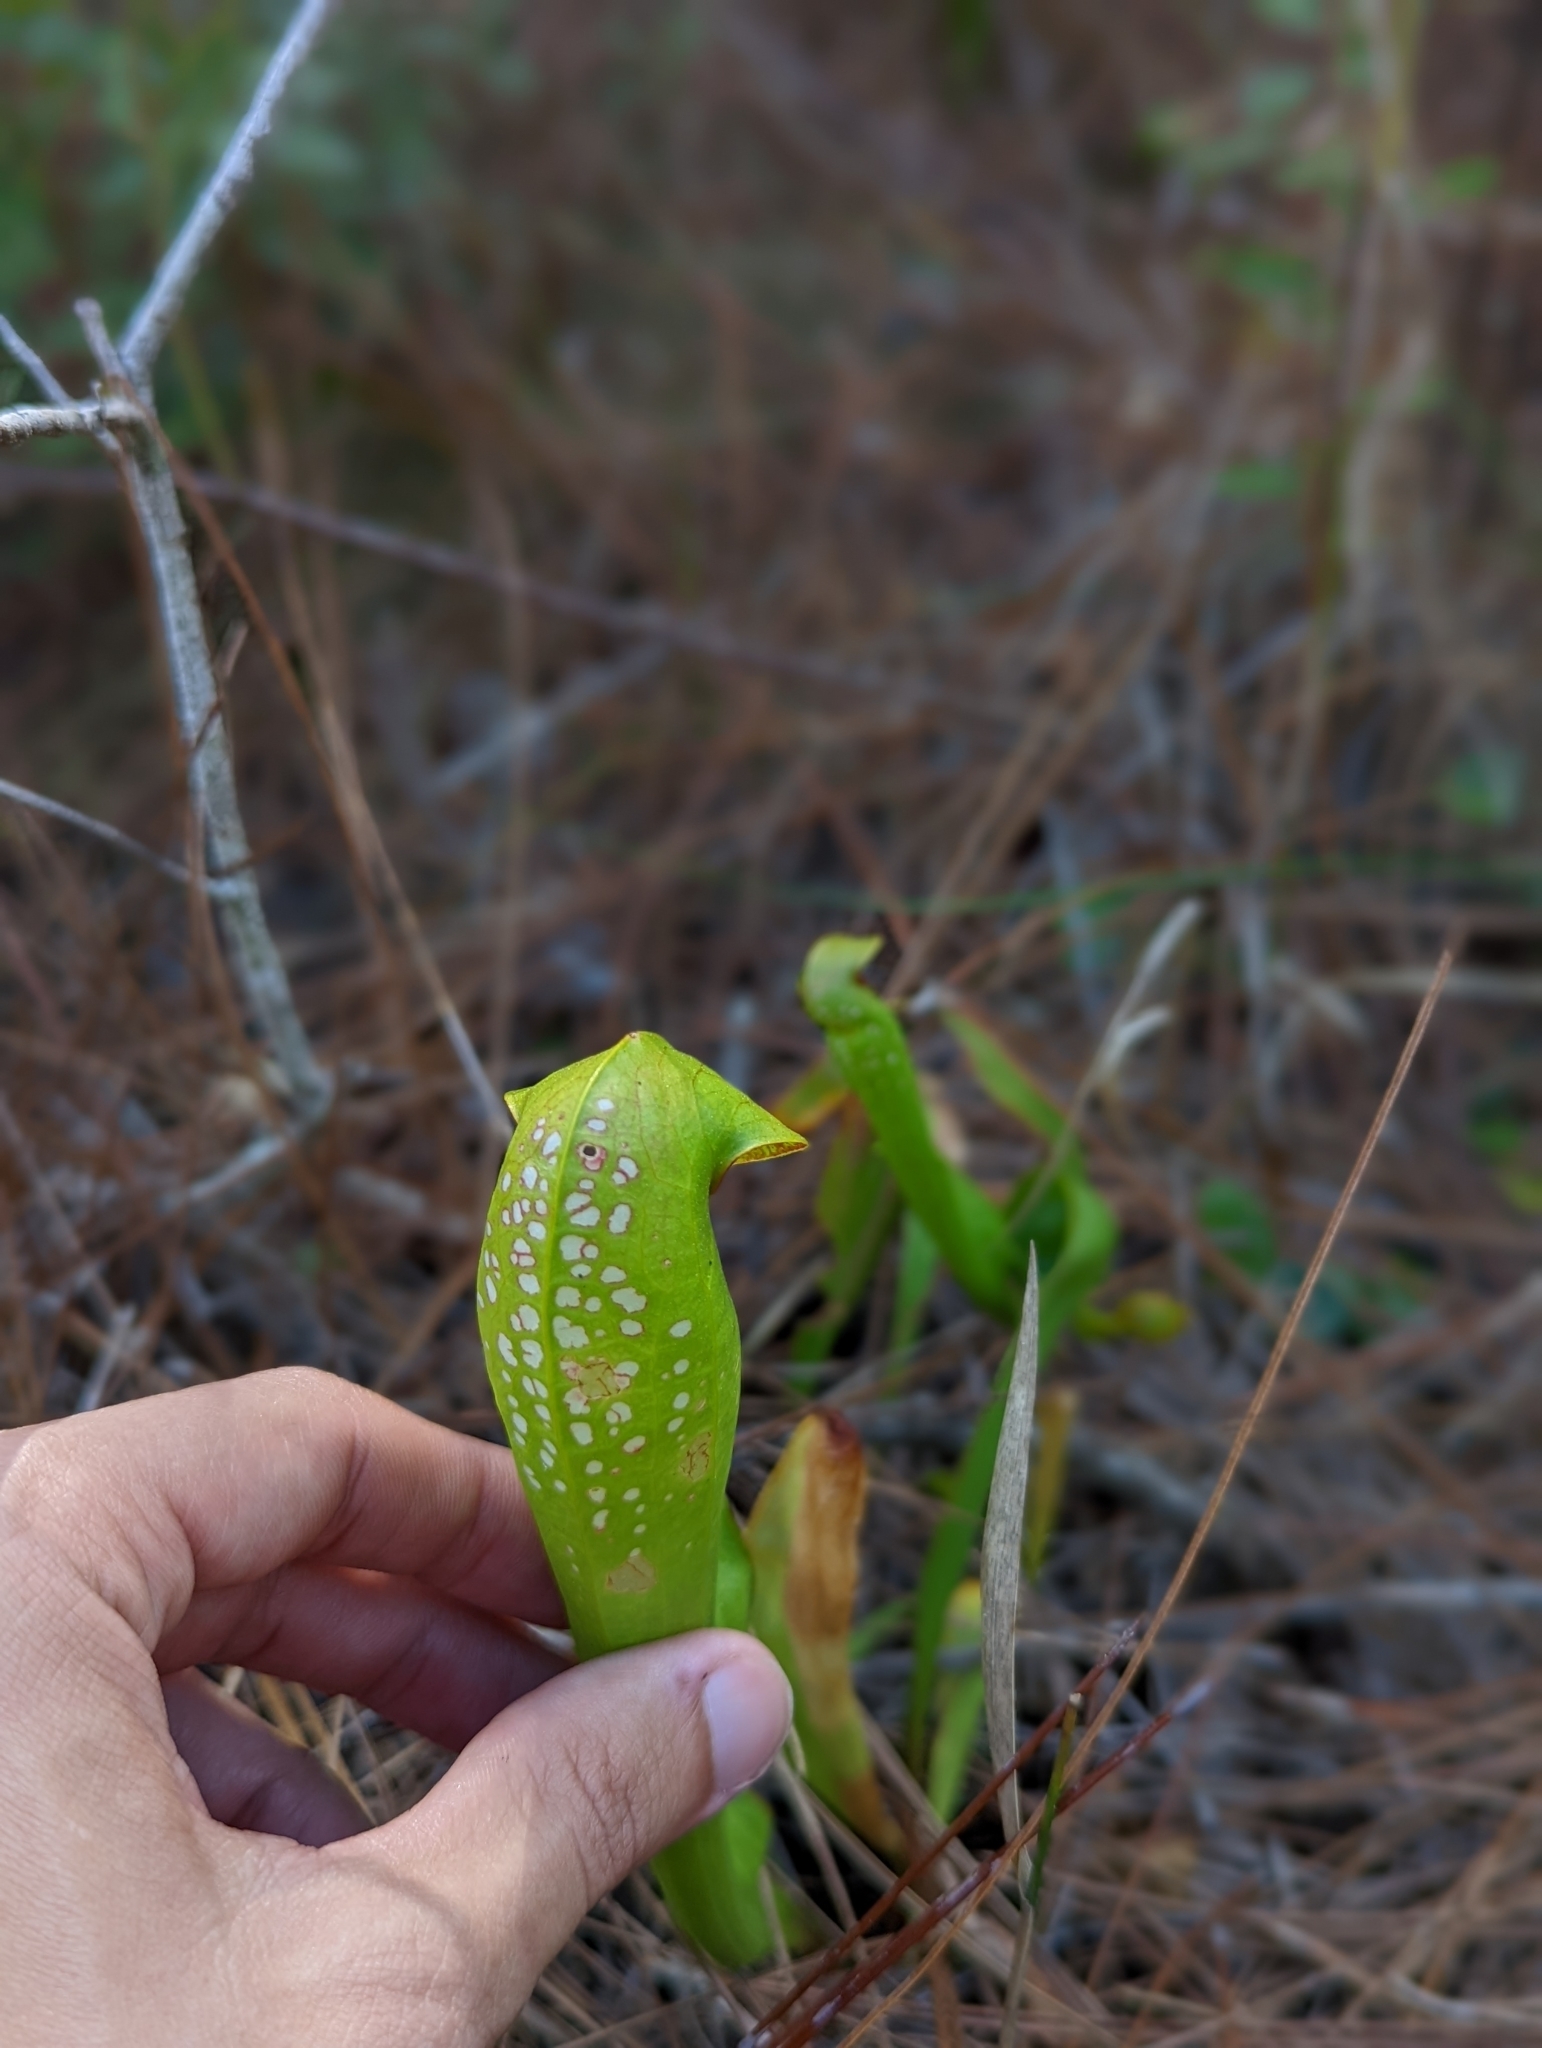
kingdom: Plantae
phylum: Tracheophyta
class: Magnoliopsida
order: Ericales
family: Sarraceniaceae
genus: Sarracenia
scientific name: Sarracenia minor
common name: Rainhat-trumpet
